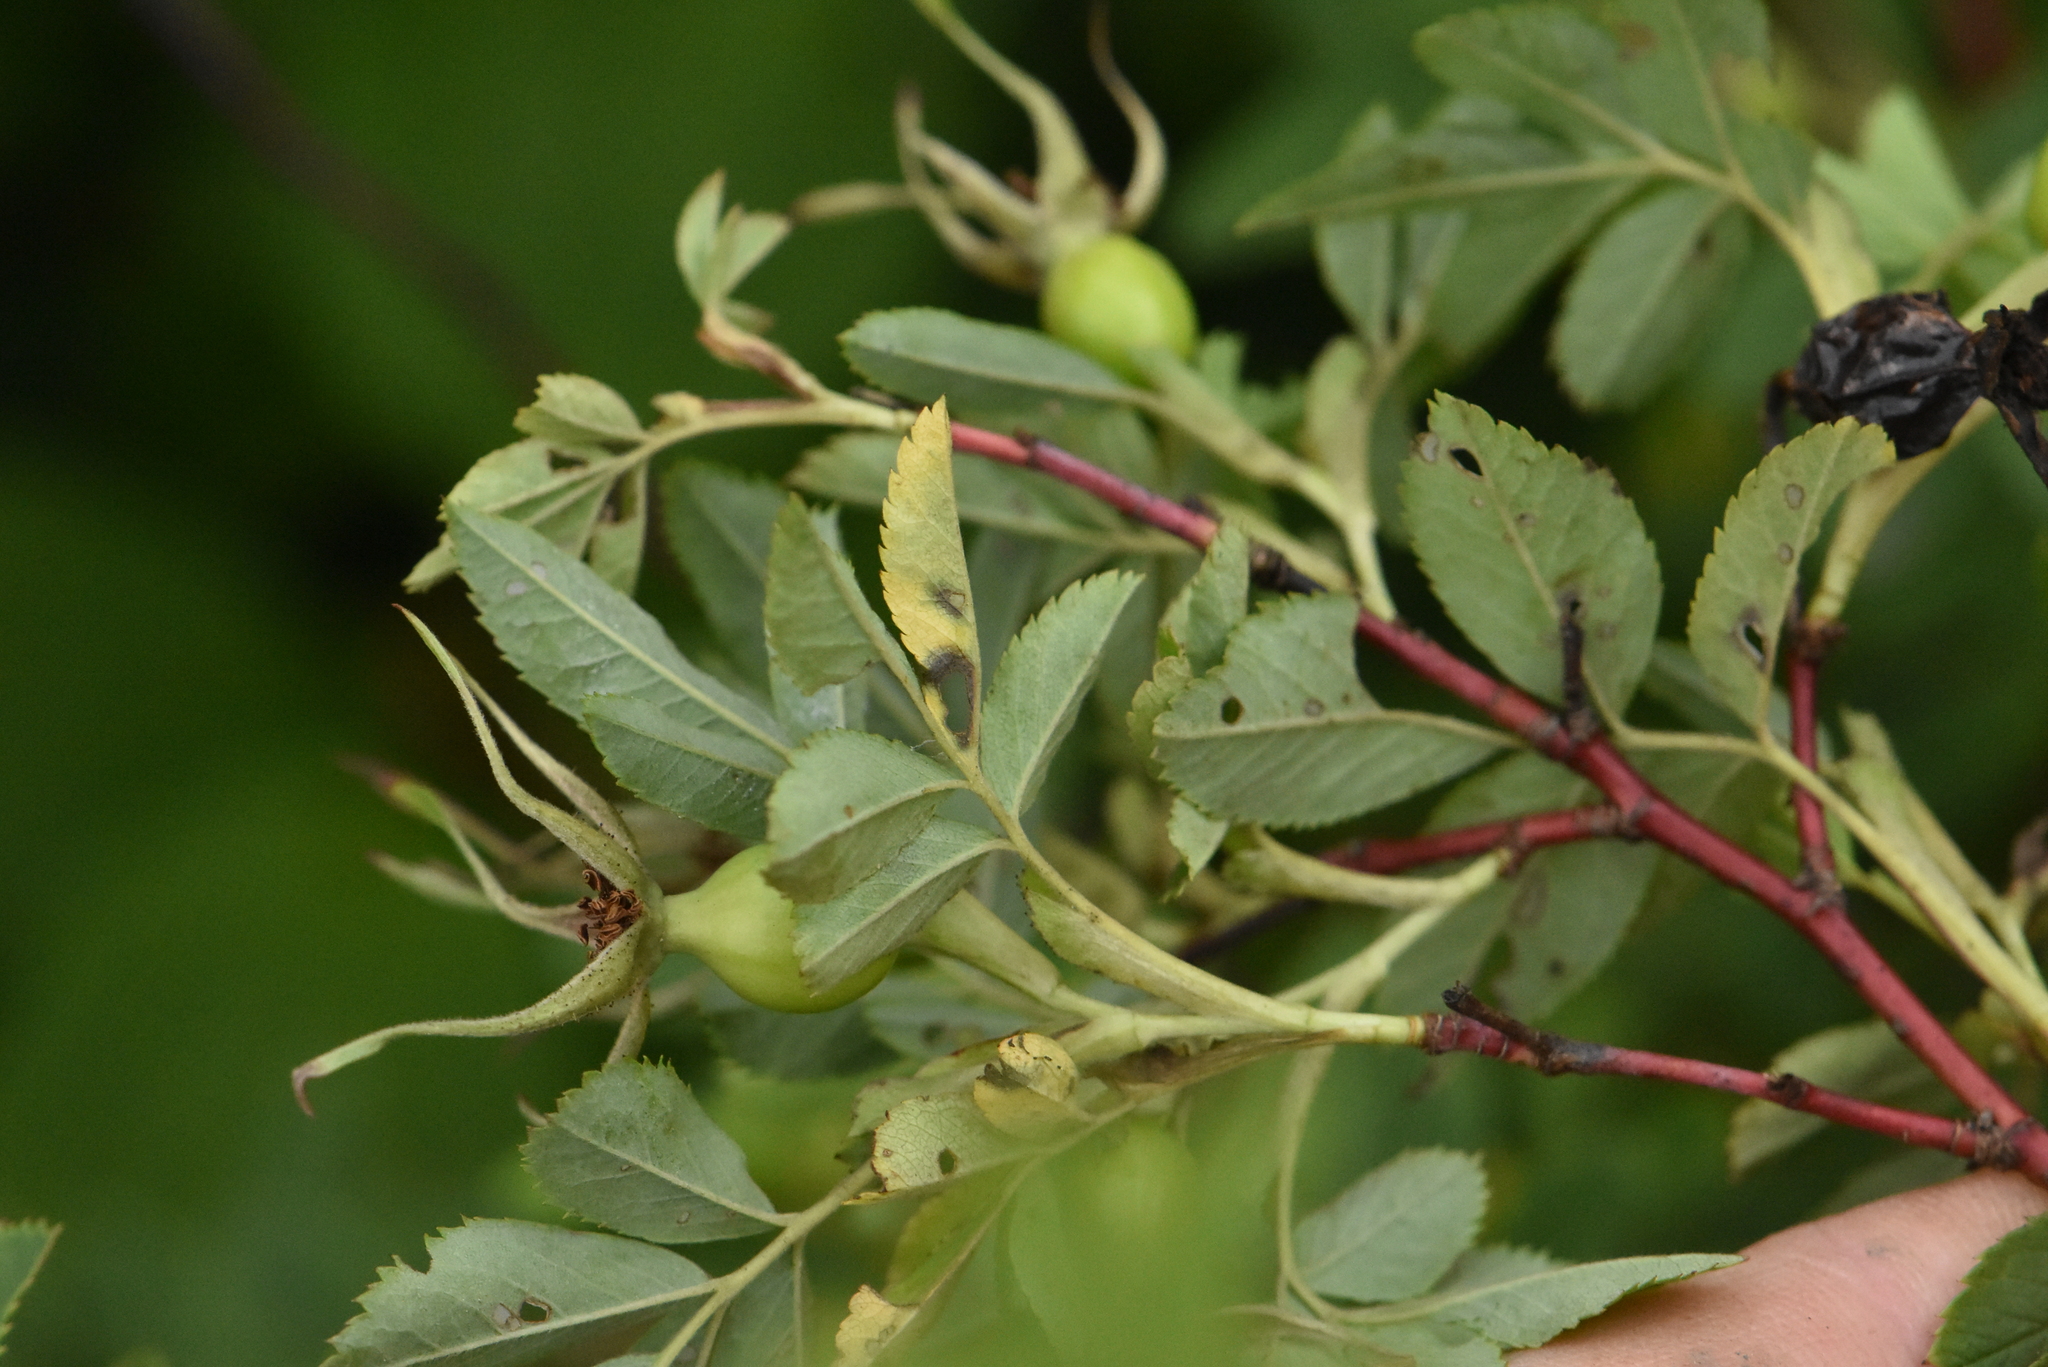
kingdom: Plantae
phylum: Tracheophyta
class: Magnoliopsida
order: Rosales
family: Rosaceae
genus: Rosa
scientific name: Rosa majalis
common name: Cinnamon rose
